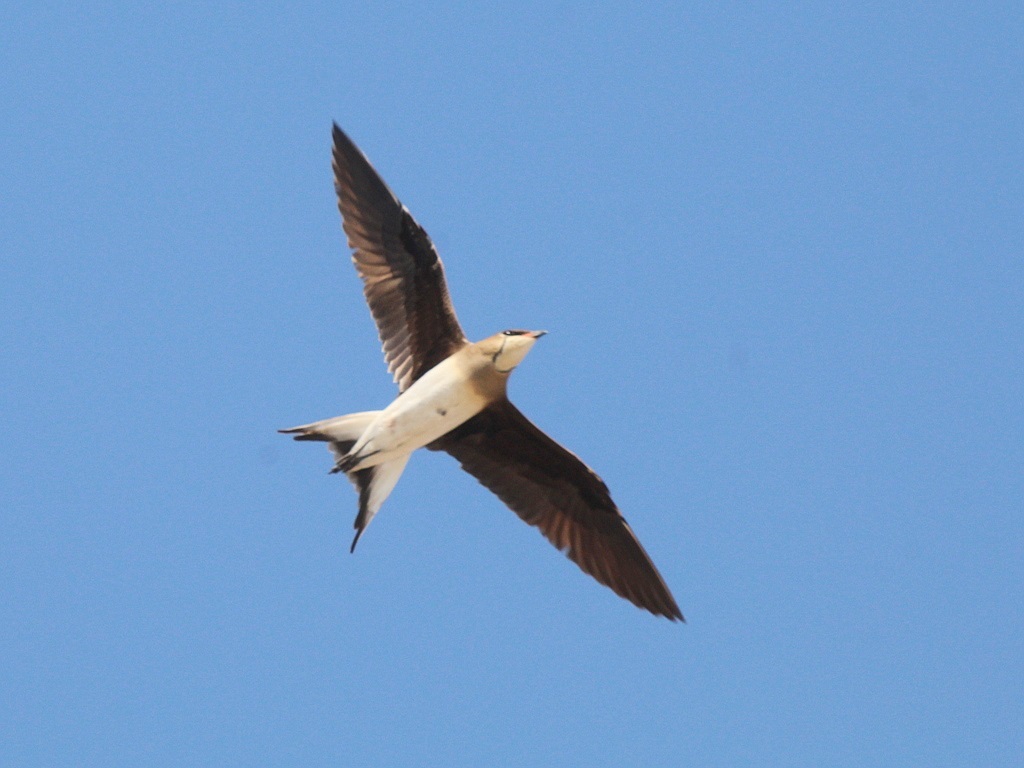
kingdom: Animalia
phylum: Chordata
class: Aves
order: Charadriiformes
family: Glareolidae
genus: Glareola
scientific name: Glareola nordmanni
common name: Black-winged pratincole
